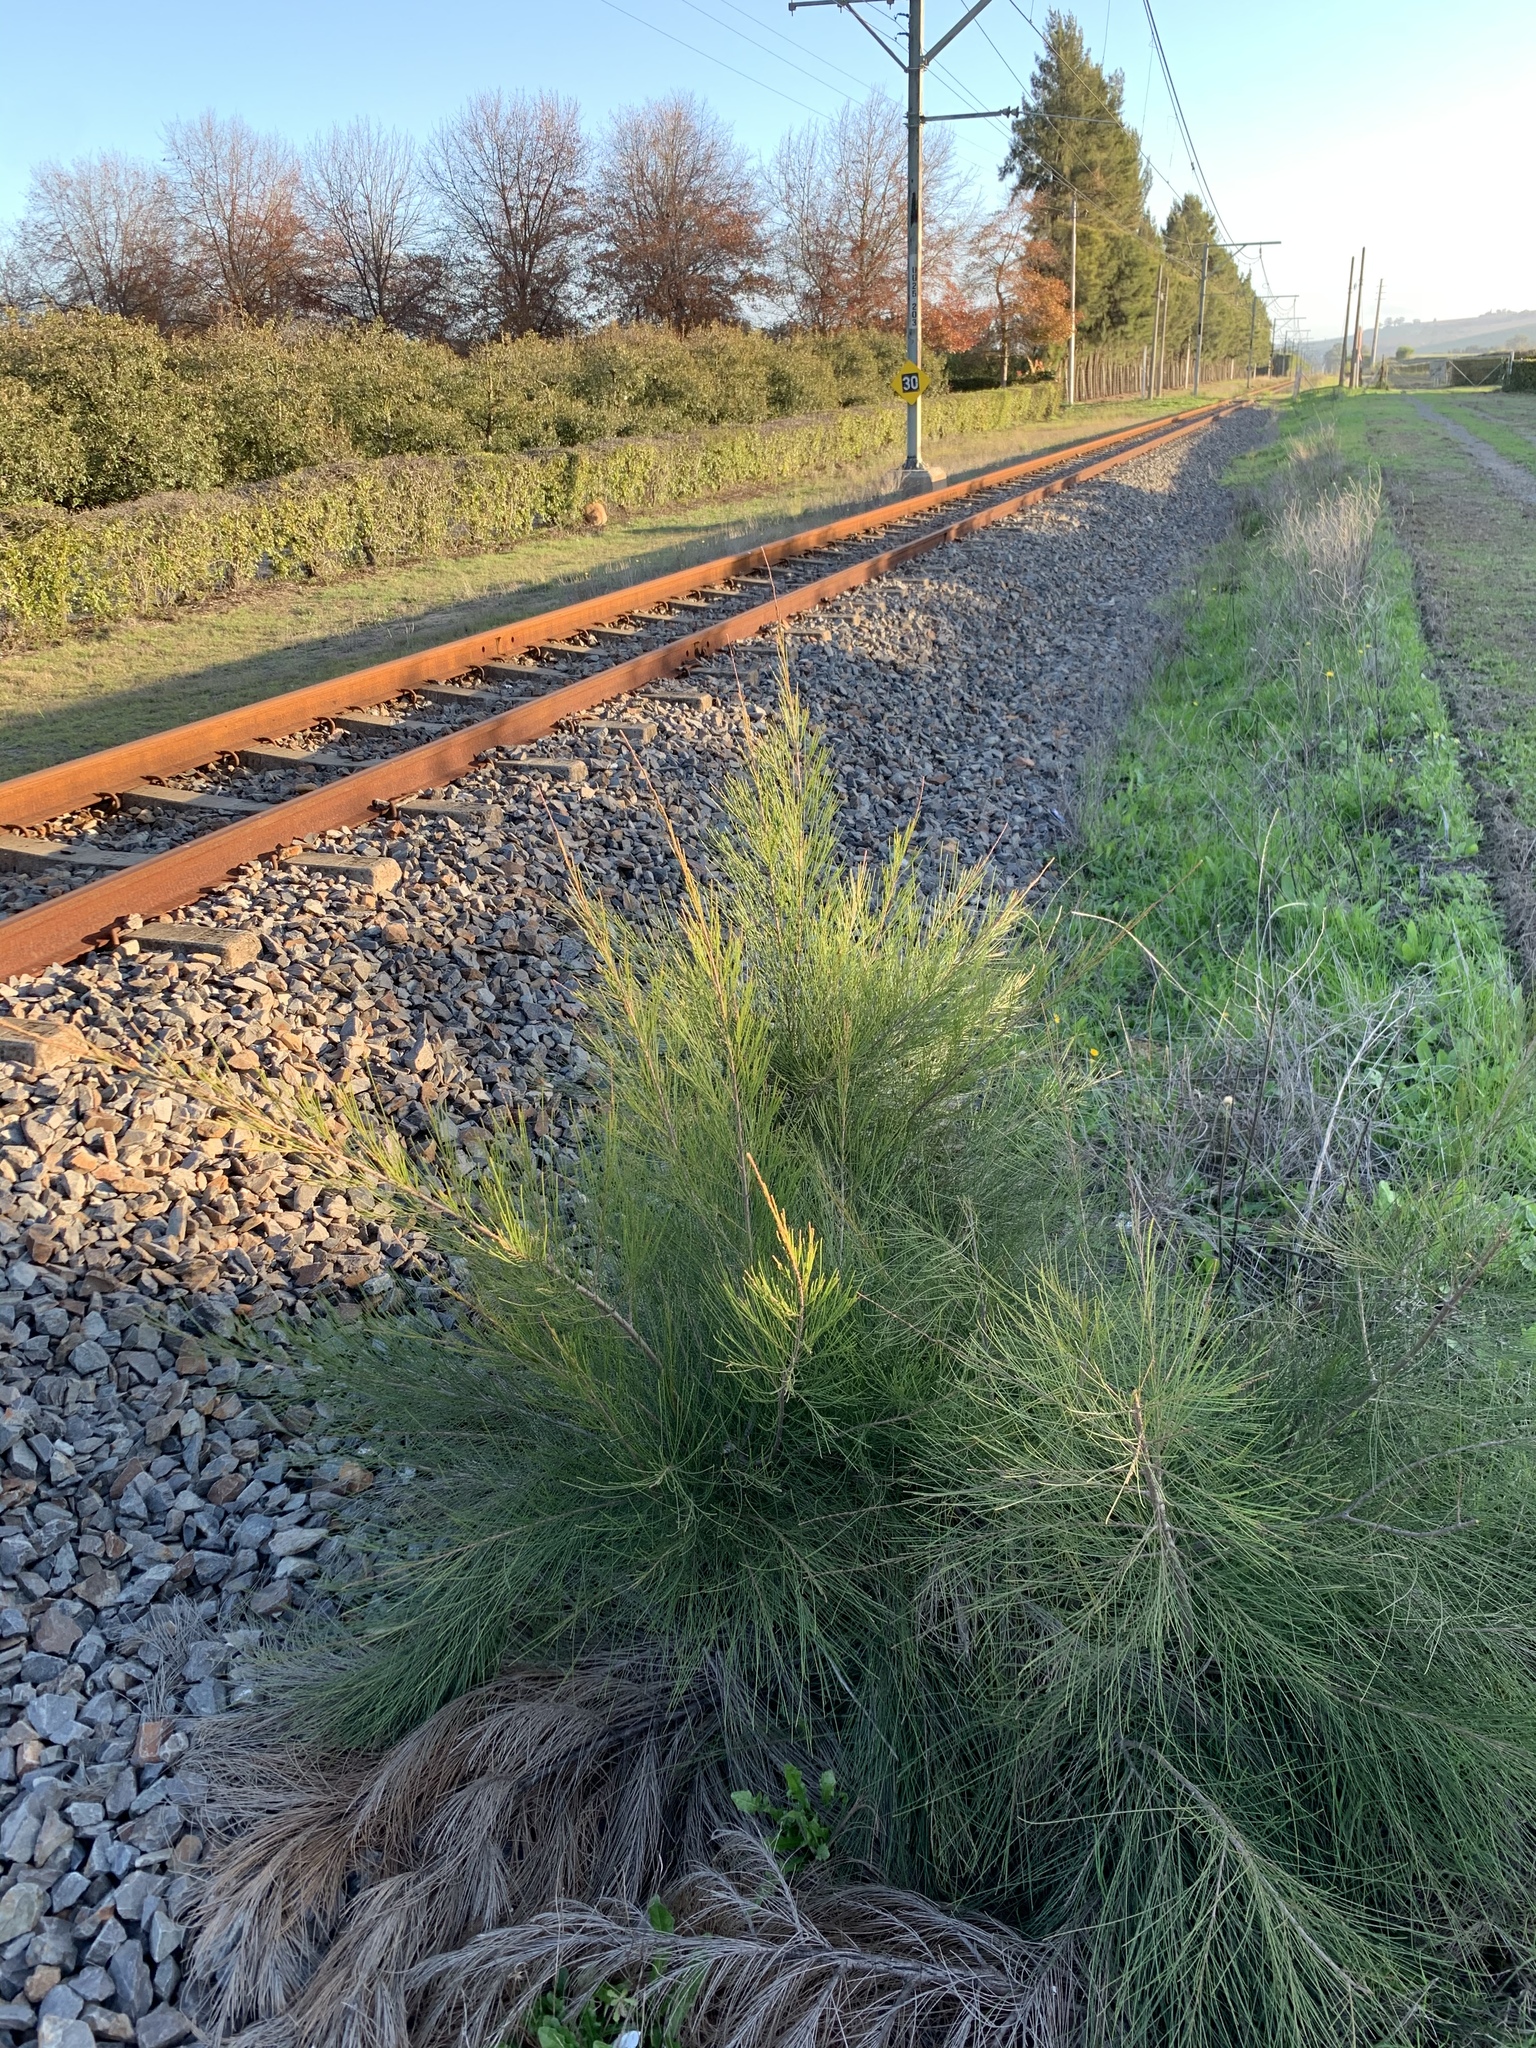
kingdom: Plantae
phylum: Tracheophyta
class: Magnoliopsida
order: Fagales
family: Casuarinaceae
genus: Casuarina
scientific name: Casuarina cunninghamiana
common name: River sheoak
